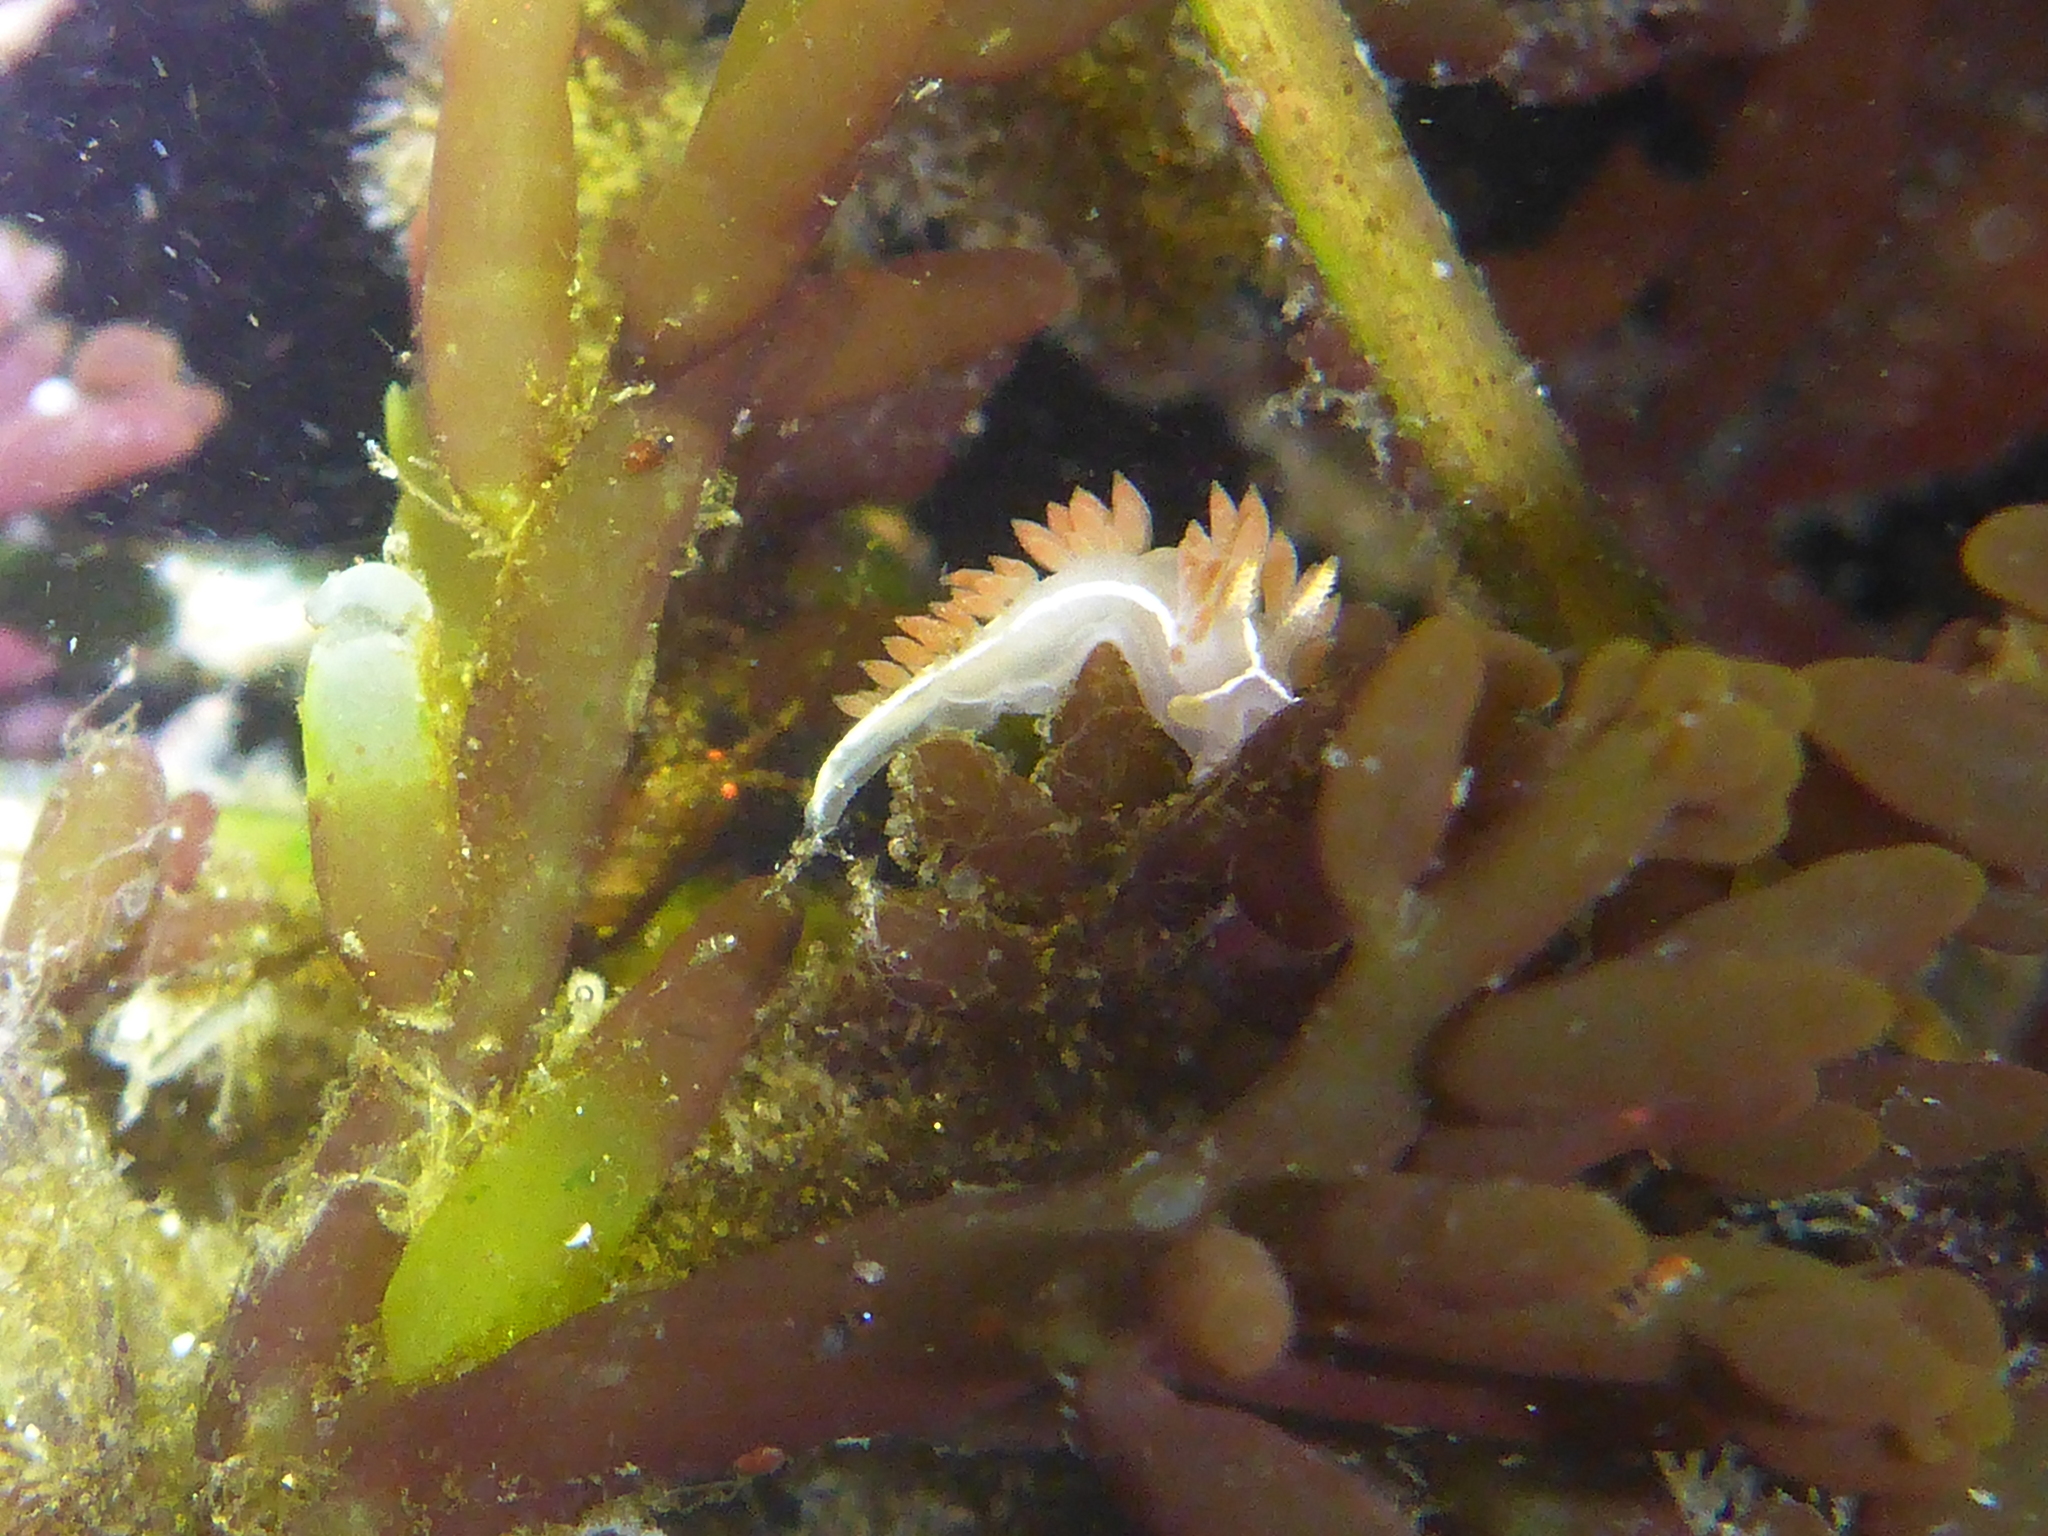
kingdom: Animalia
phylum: Mollusca
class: Gastropoda
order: Nudibranchia
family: Coryphellidae
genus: Coryphella
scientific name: Coryphella trilineata
